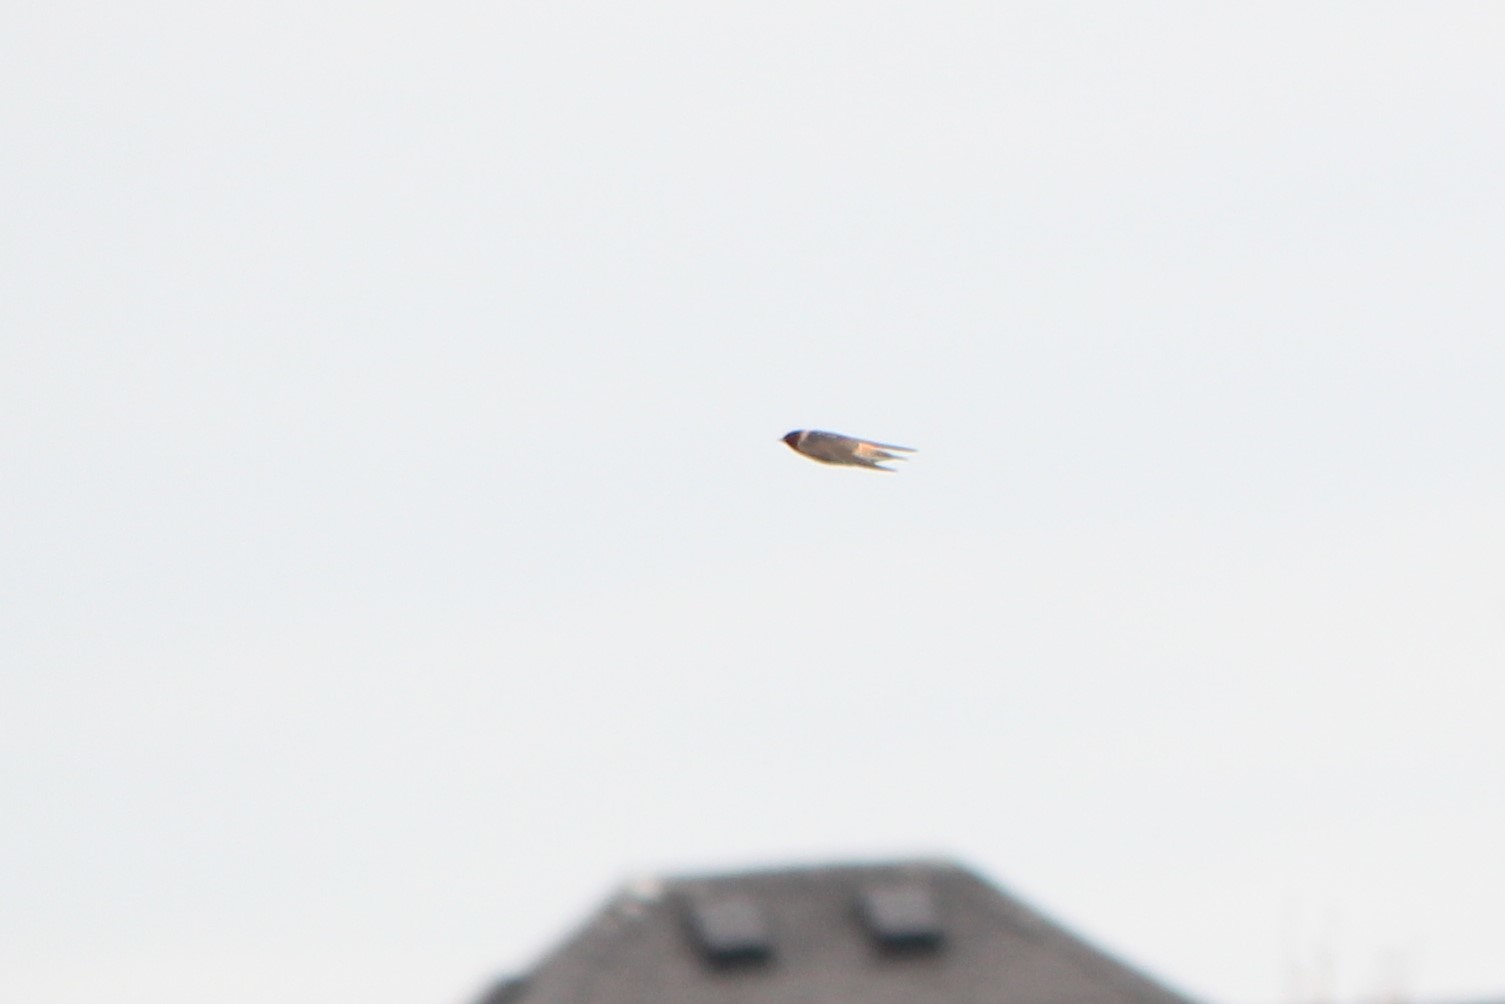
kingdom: Animalia
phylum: Chordata
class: Aves
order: Passeriformes
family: Hirundinidae
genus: Petrochelidon
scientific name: Petrochelidon pyrrhonota
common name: American cliff swallow
